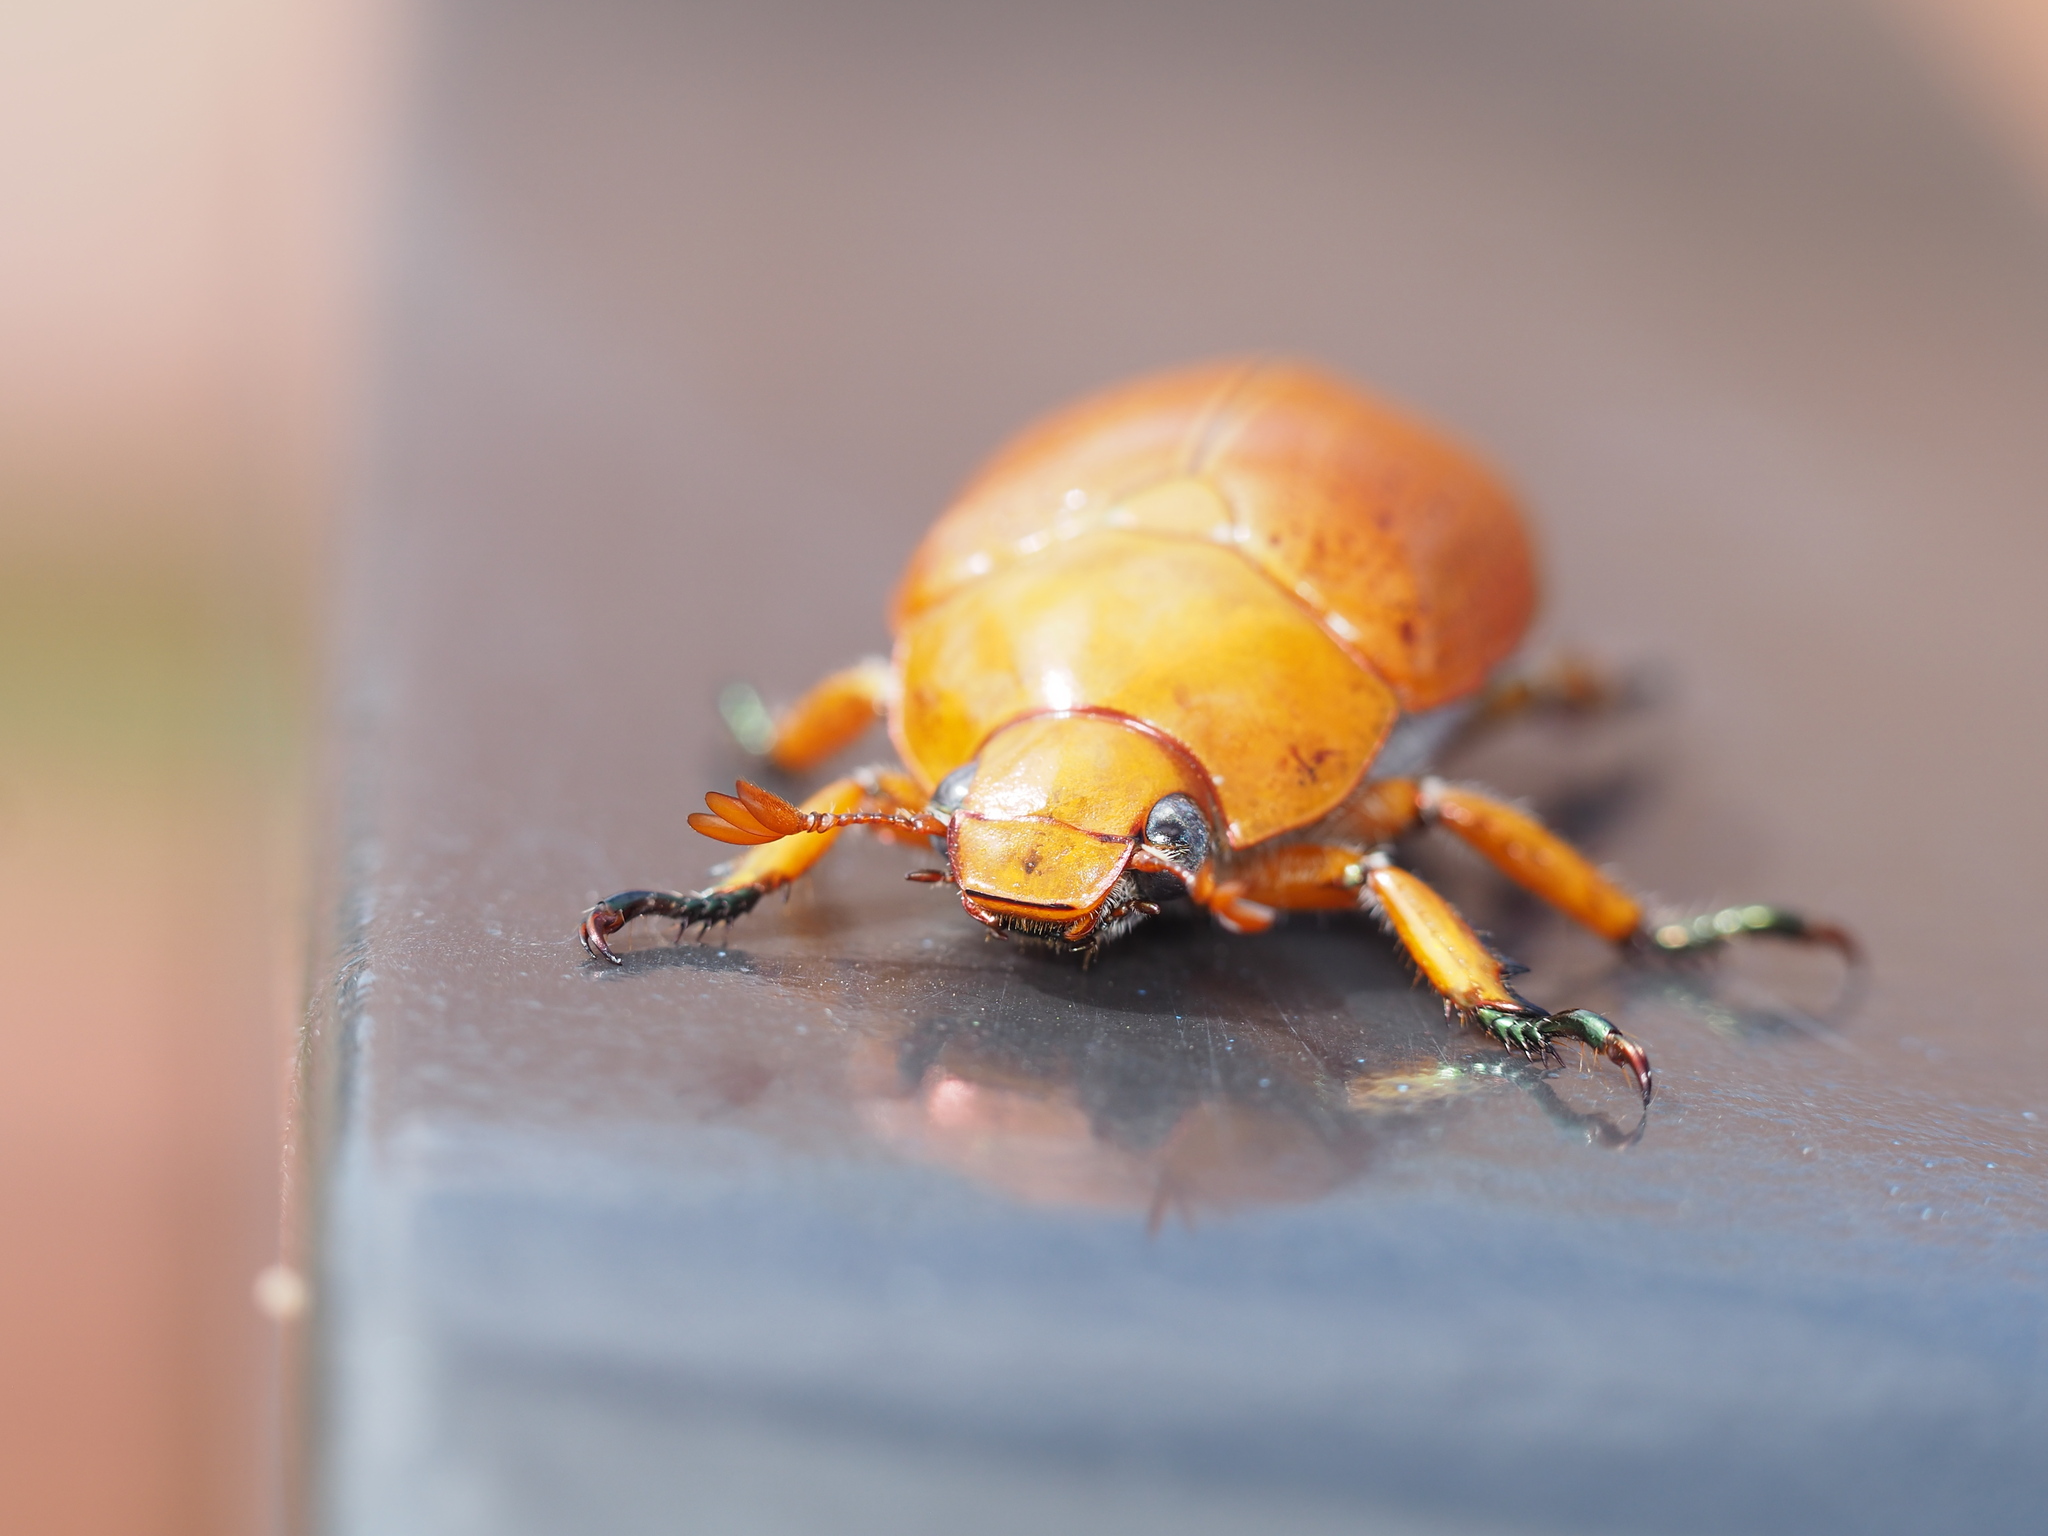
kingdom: Animalia
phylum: Arthropoda
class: Insecta
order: Coleoptera
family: Scarabaeidae
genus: Anoplognathus
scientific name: Anoplognathus
